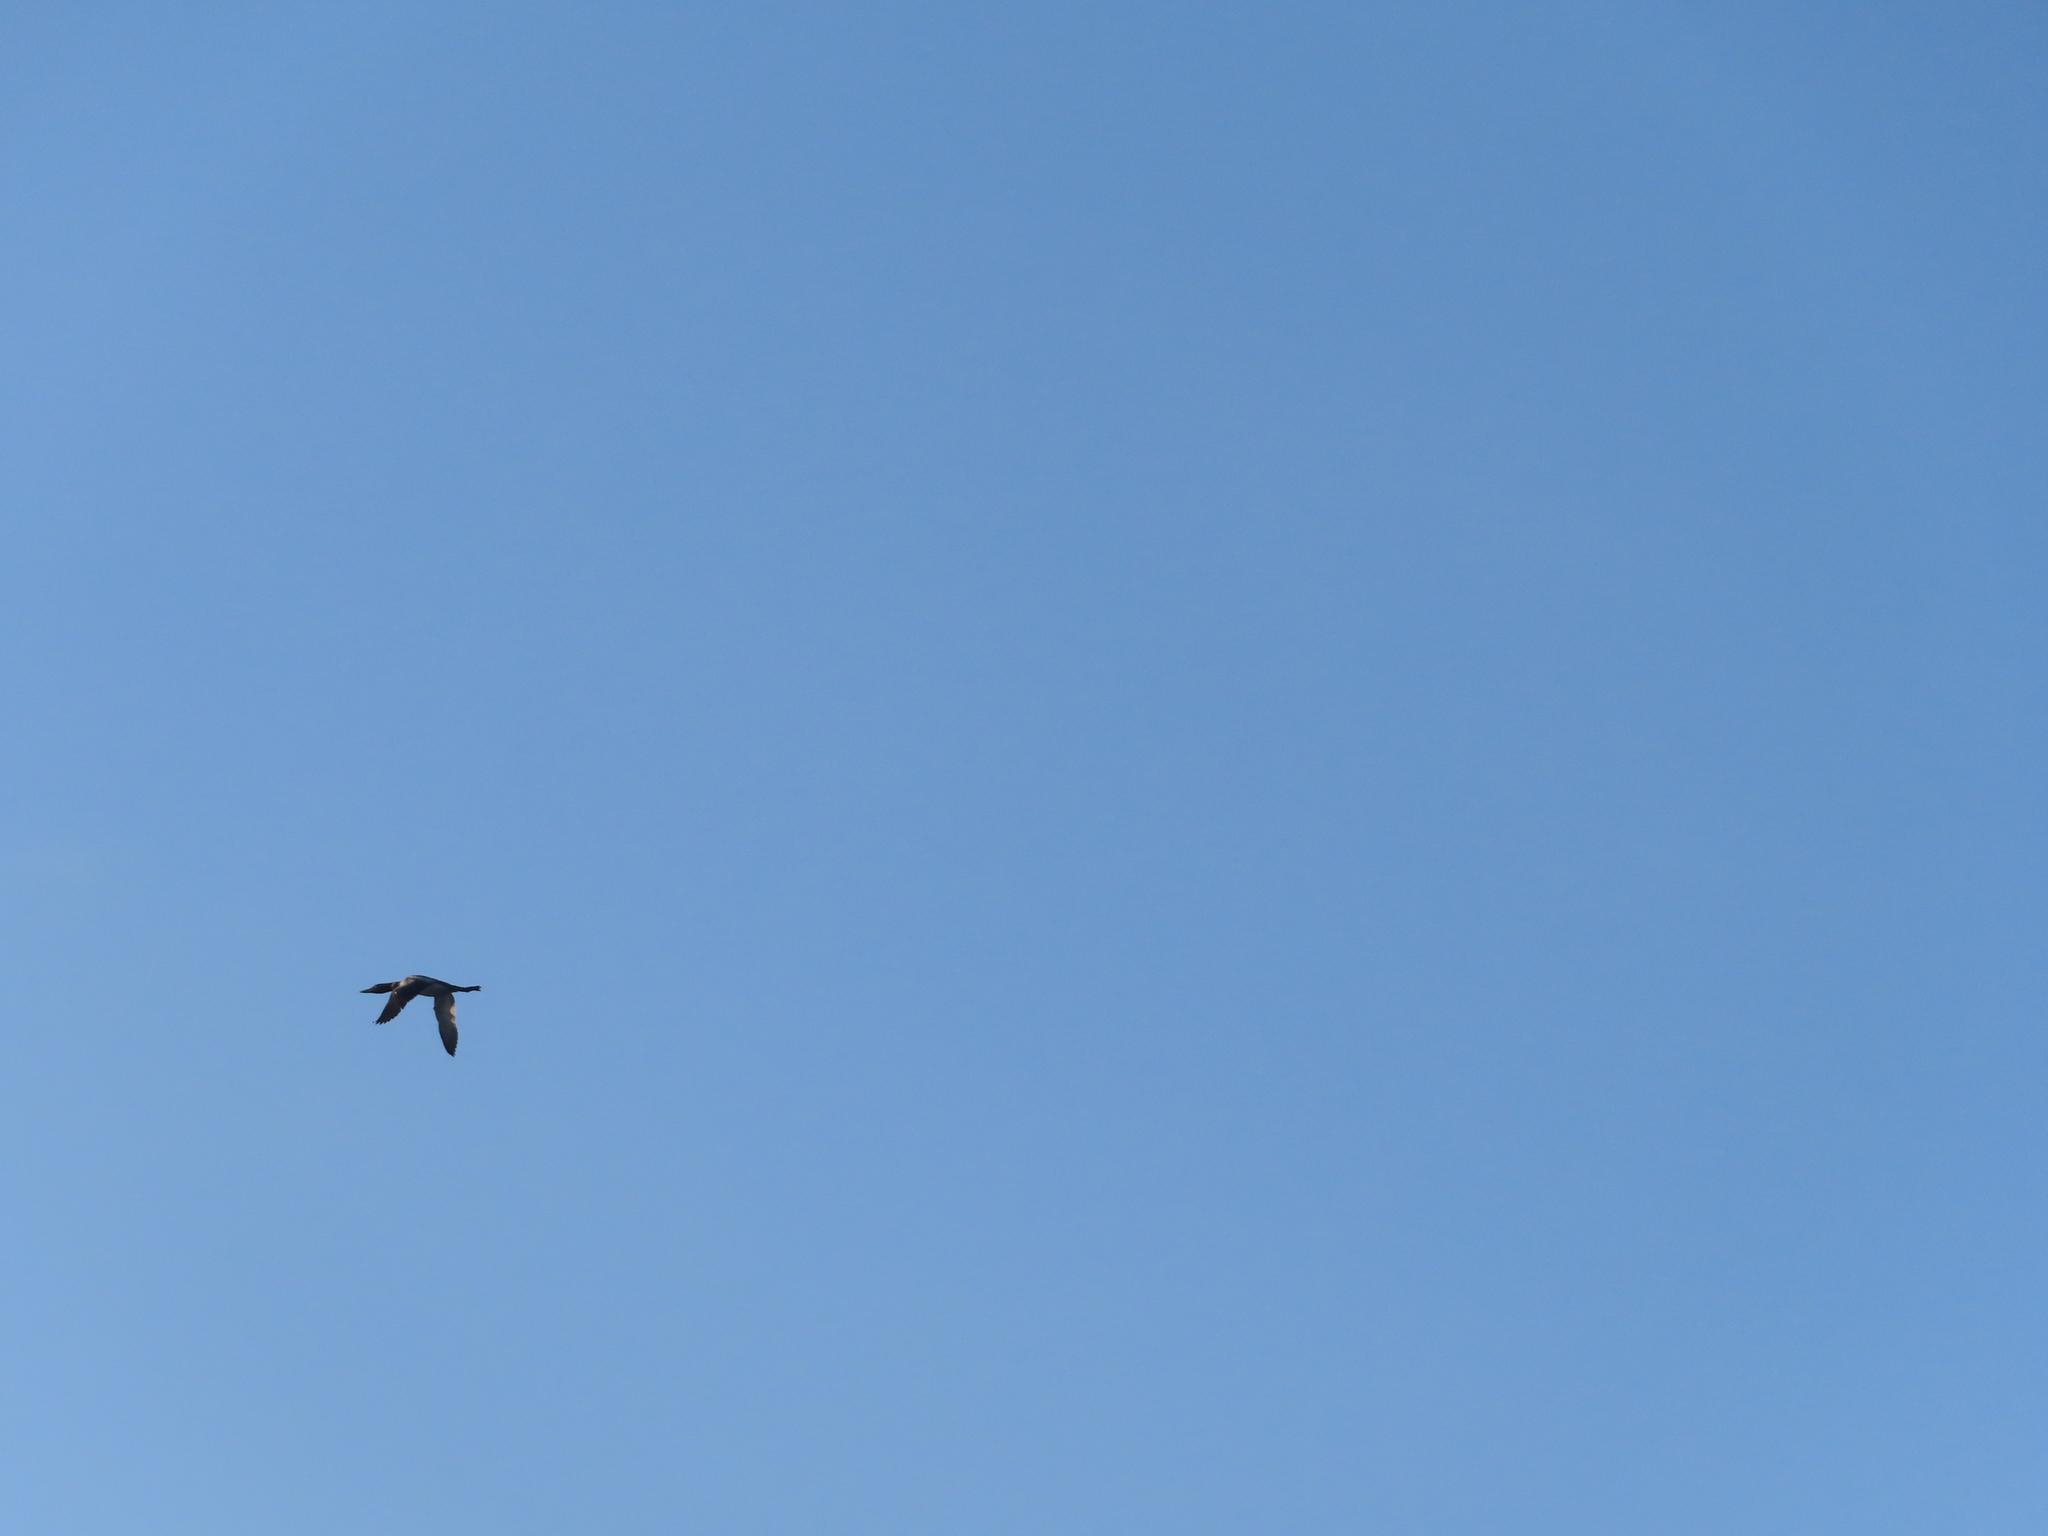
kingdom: Animalia
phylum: Chordata
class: Aves
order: Gaviiformes
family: Gaviidae
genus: Gavia
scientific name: Gavia immer
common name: Common loon
